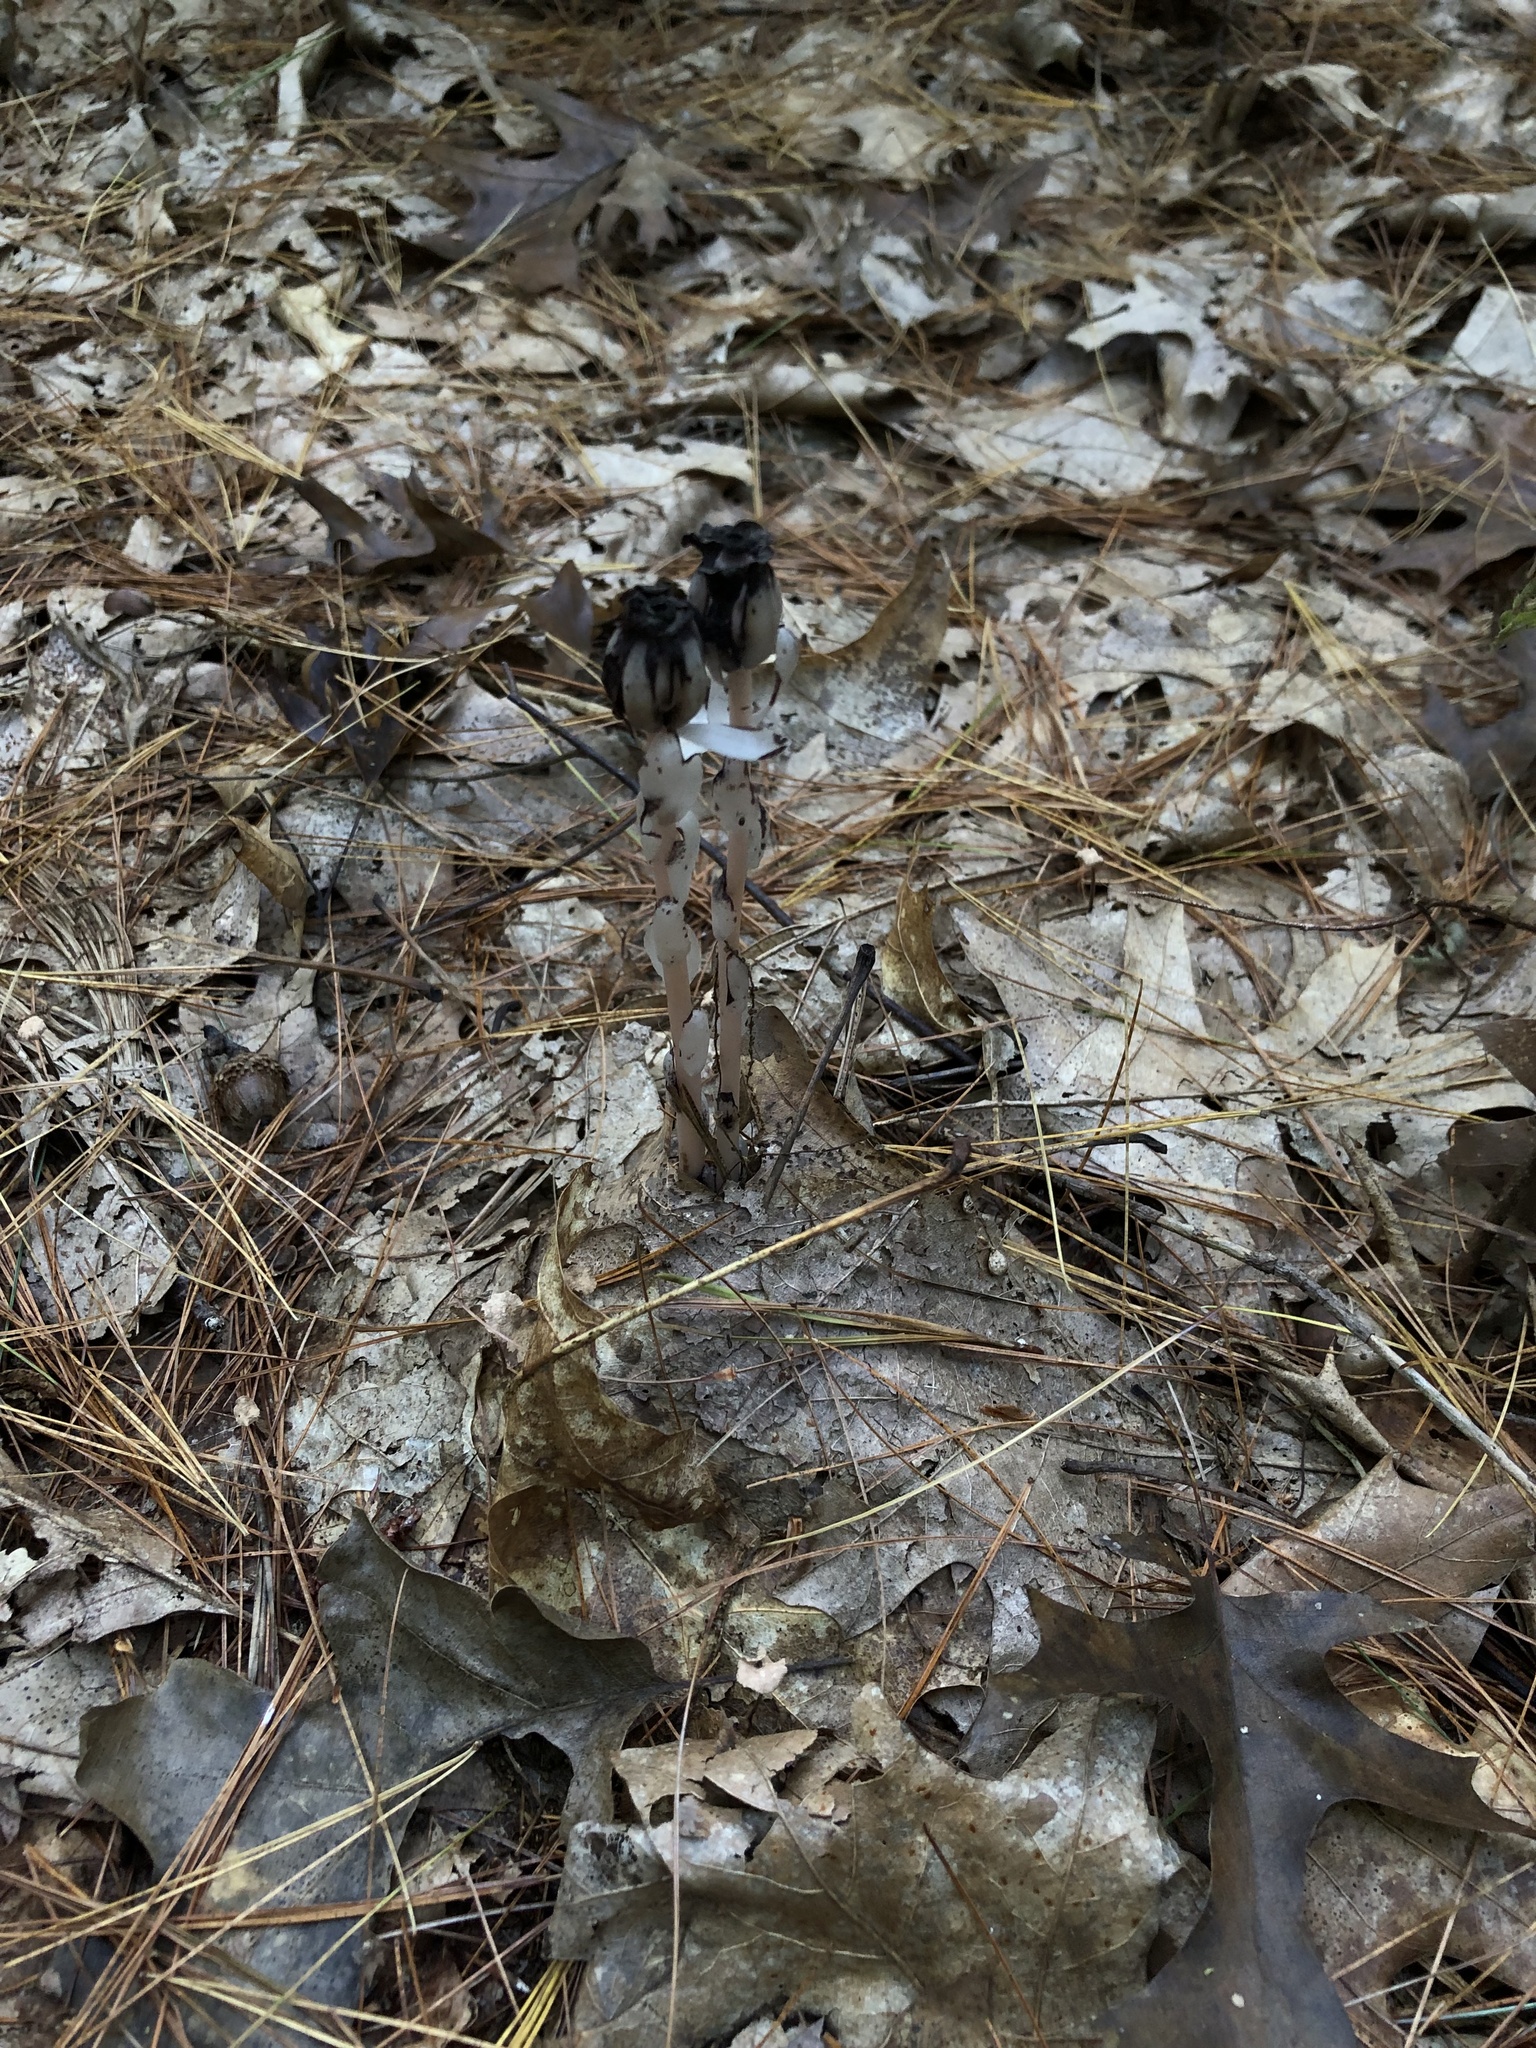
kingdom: Plantae
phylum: Tracheophyta
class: Magnoliopsida
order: Ericales
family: Ericaceae
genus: Monotropa
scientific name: Monotropa uniflora
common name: Convulsion root
